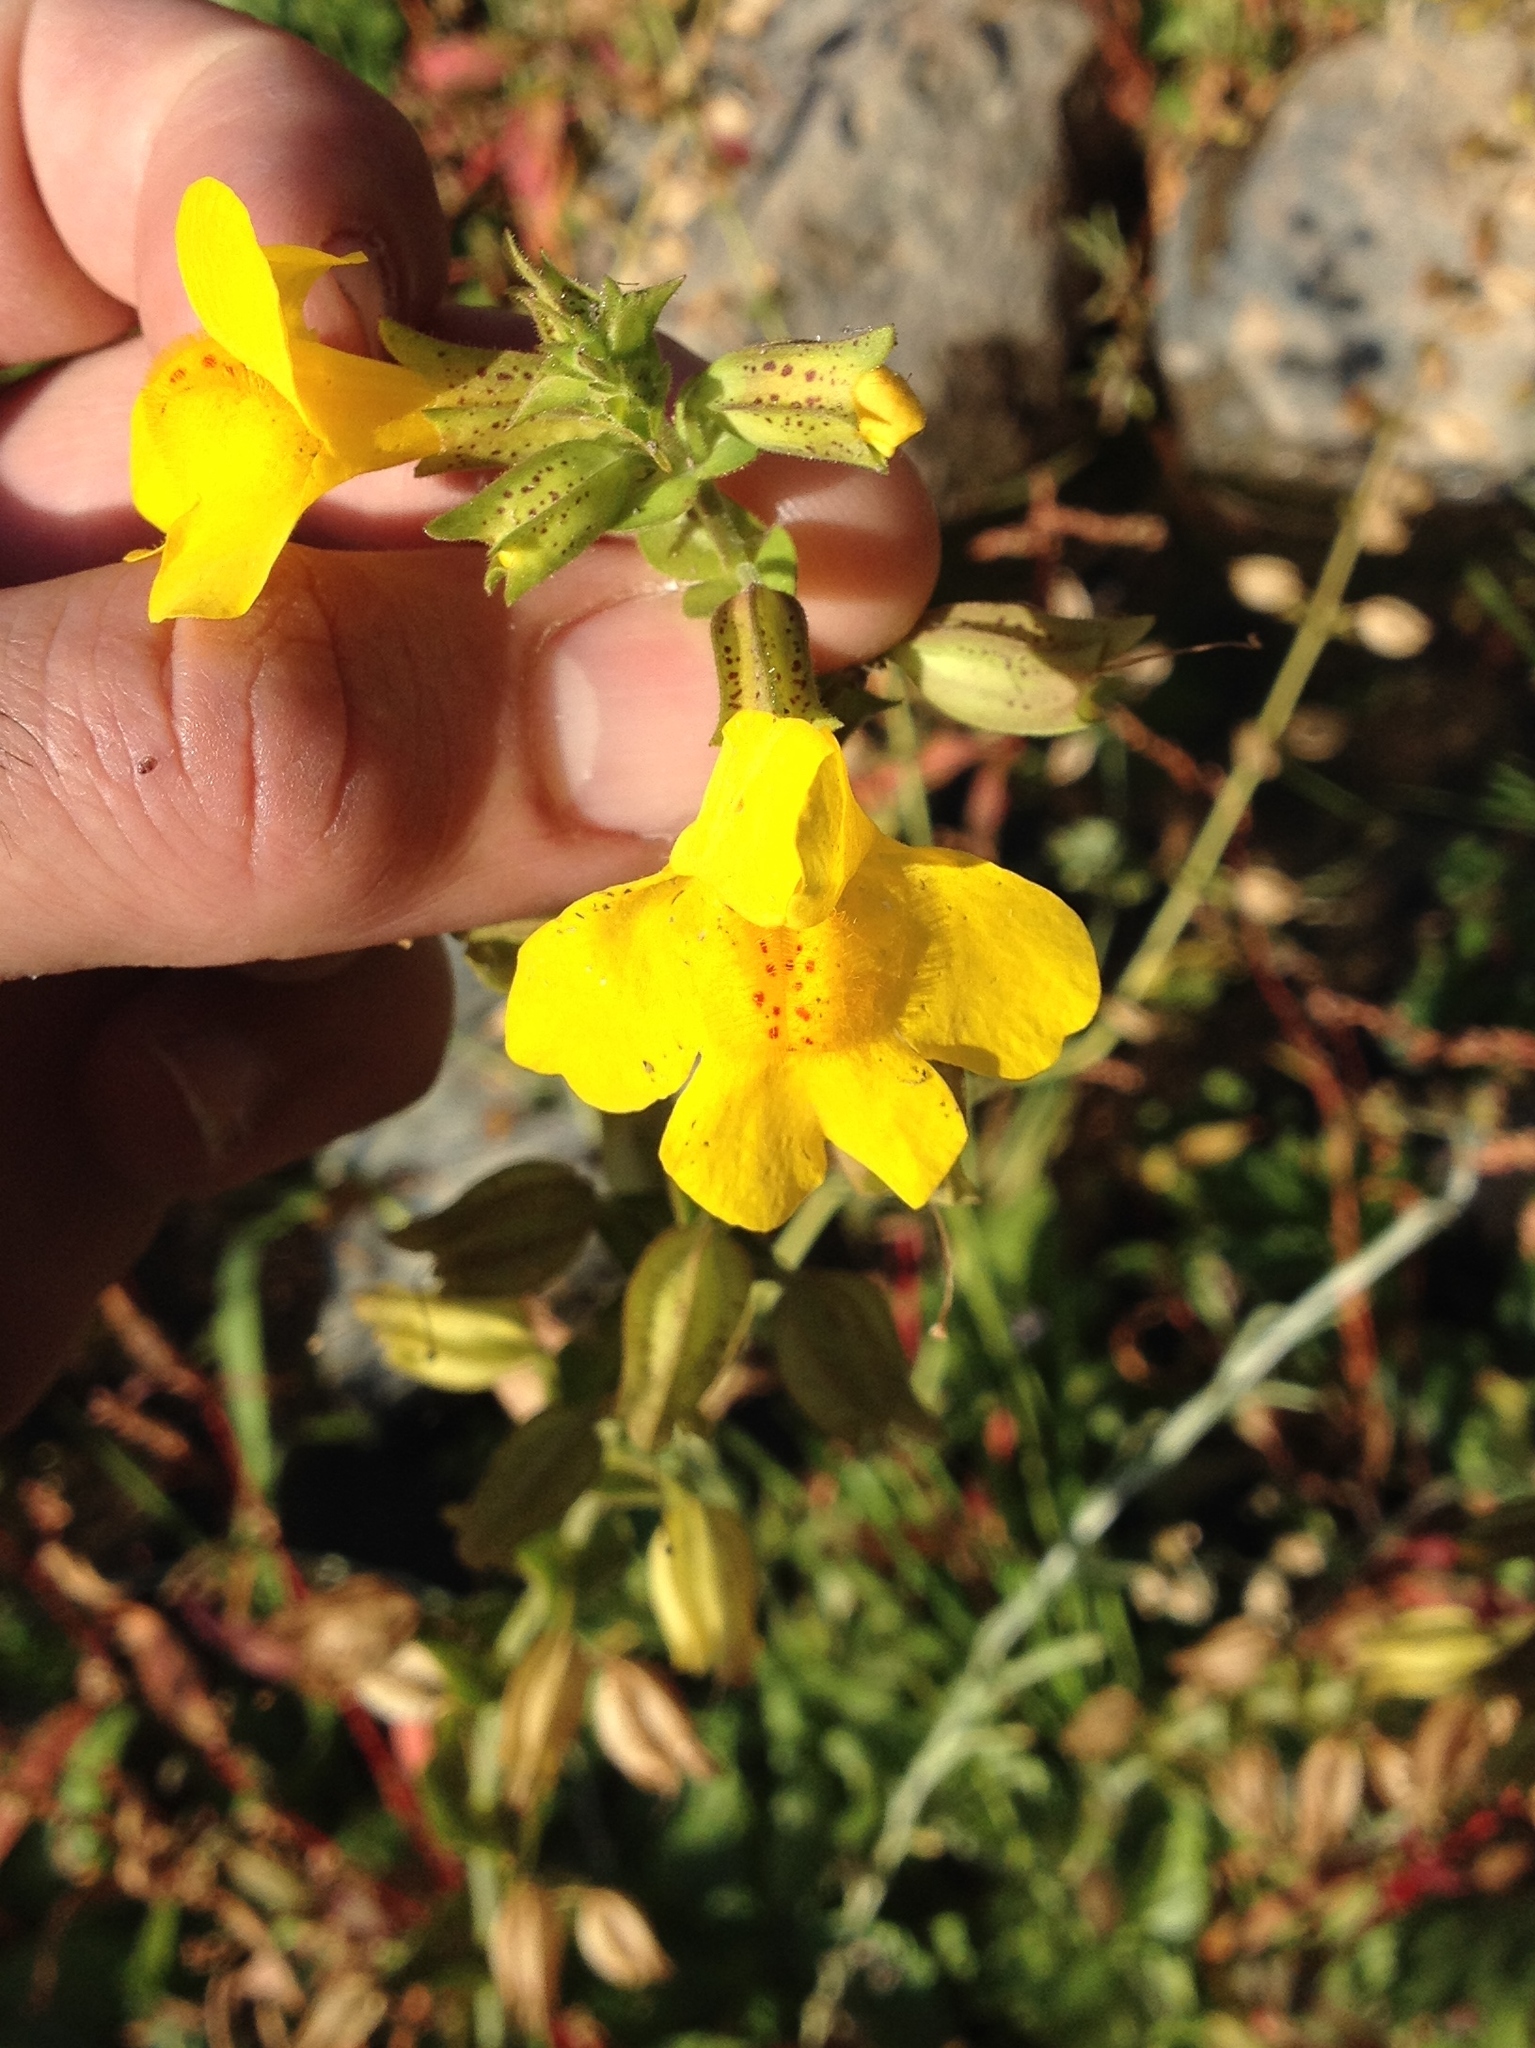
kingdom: Plantae
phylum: Tracheophyta
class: Magnoliopsida
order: Lamiales
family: Phrymaceae
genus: Erythranthe
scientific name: Erythranthe guttata
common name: Monkeyflower
